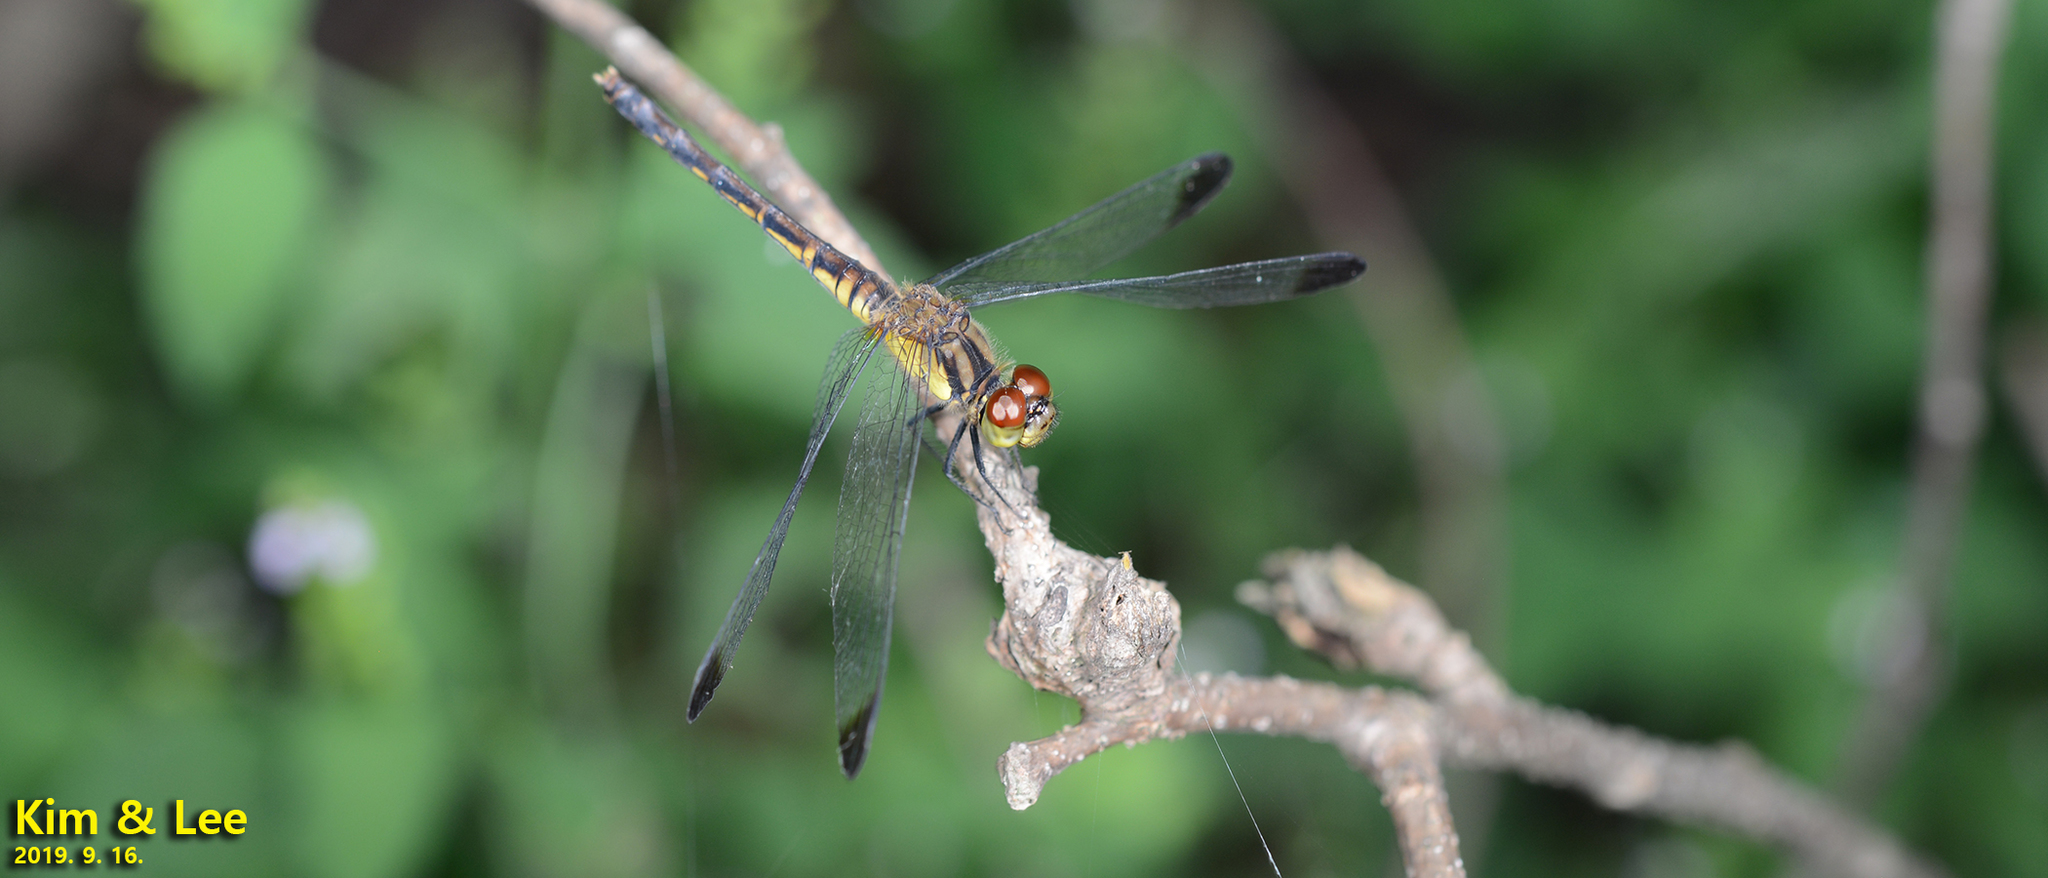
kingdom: Animalia
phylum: Arthropoda
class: Insecta
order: Odonata
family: Libellulidae
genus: Sympetrum
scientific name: Sympetrum eroticum
